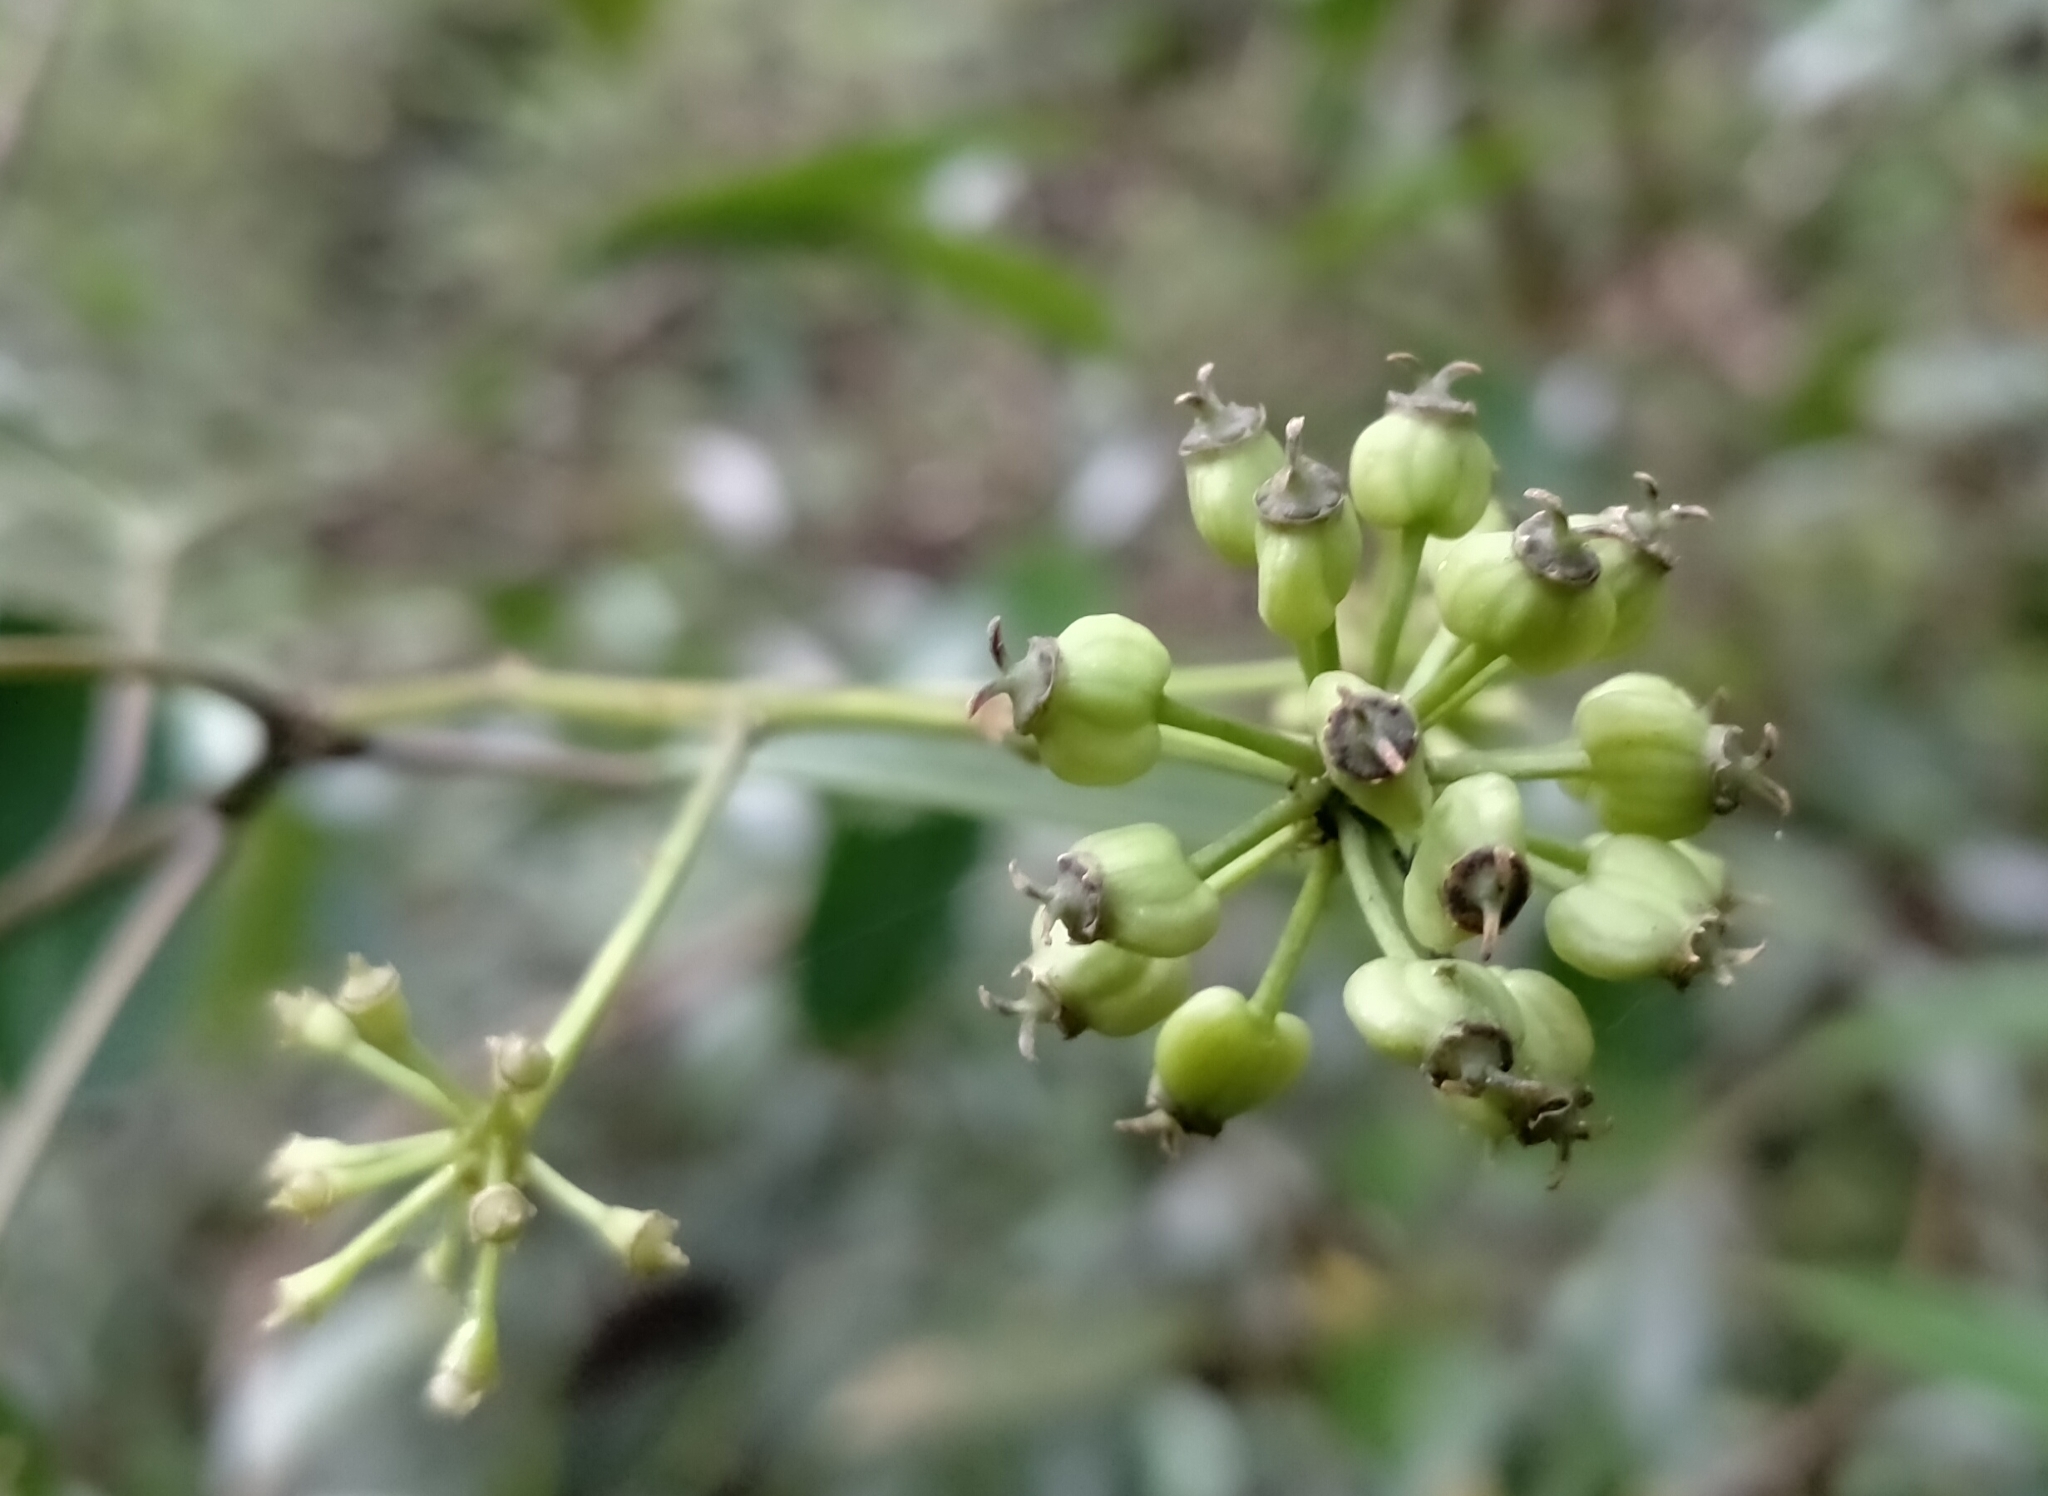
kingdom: Plantae
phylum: Tracheophyta
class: Magnoliopsida
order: Apiales
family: Araliaceae
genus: Raukaua
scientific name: Raukaua simplex
